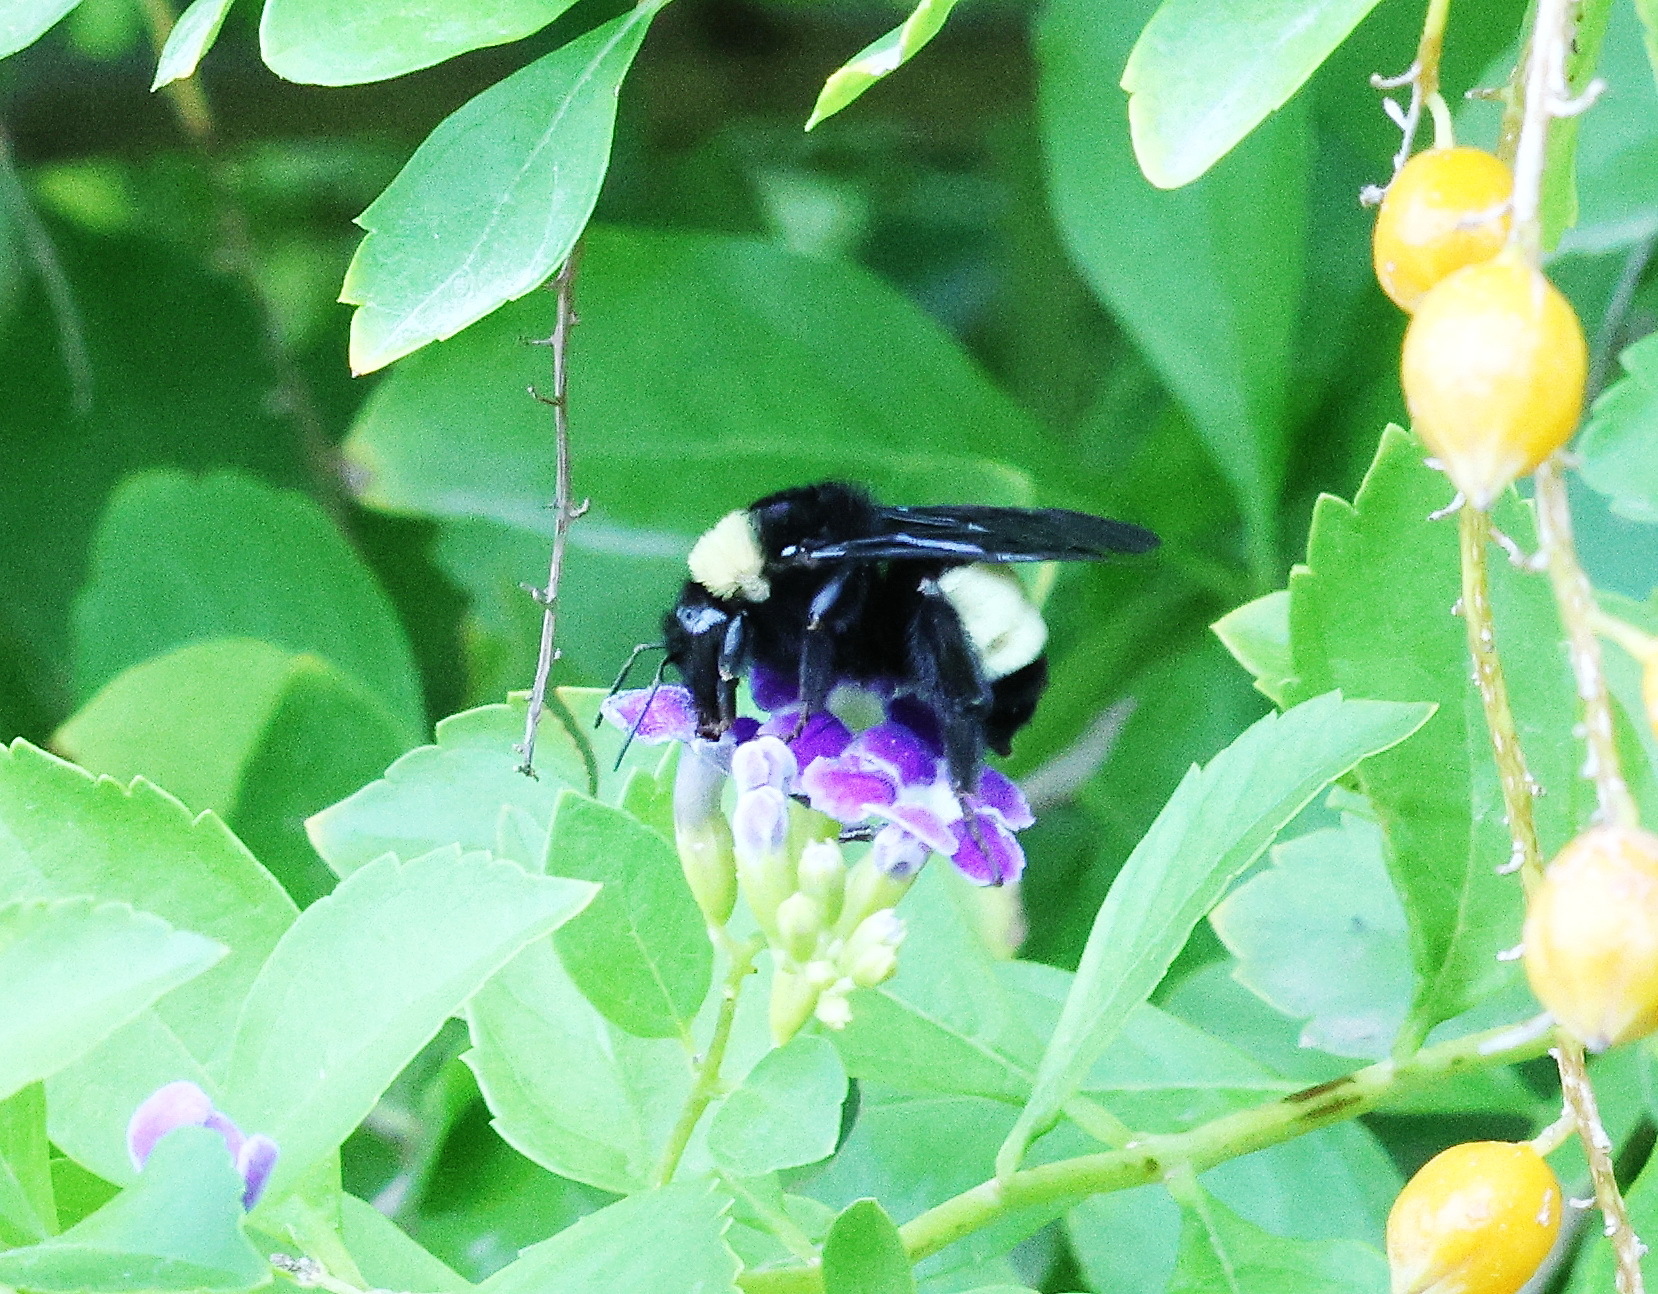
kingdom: Animalia
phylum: Arthropoda
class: Insecta
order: Hymenoptera
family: Apidae
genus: Bombus
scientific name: Bombus pensylvanicus
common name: Bumble bee
